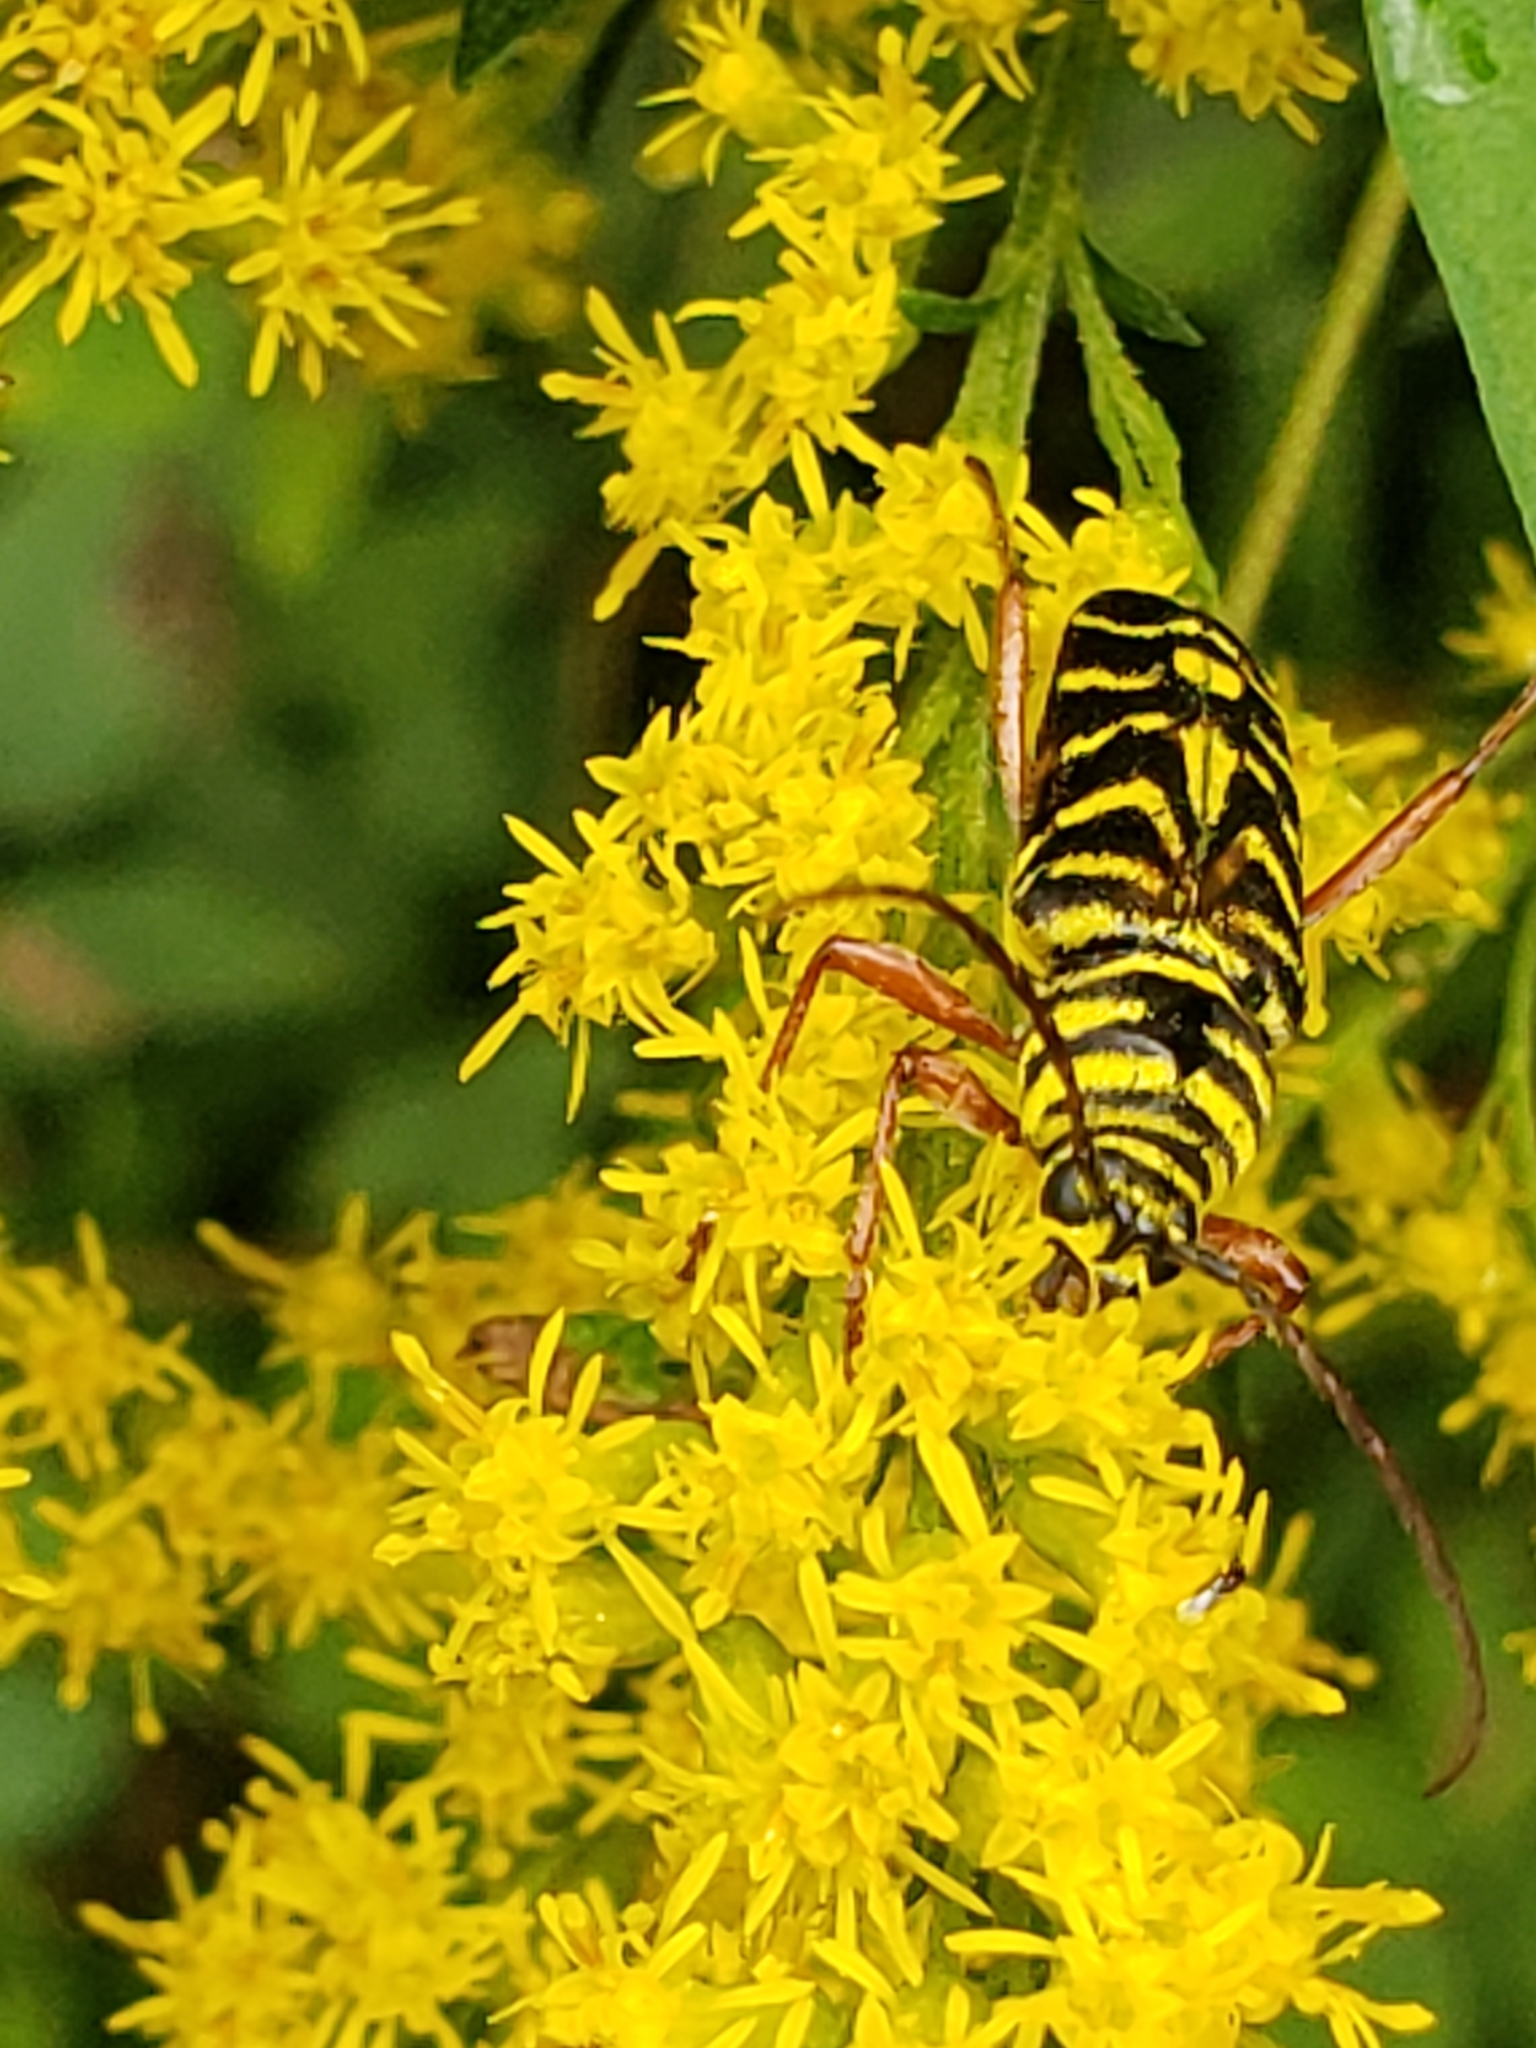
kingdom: Animalia
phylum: Arthropoda
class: Insecta
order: Coleoptera
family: Cerambycidae
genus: Megacyllene
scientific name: Megacyllene robiniae
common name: Locust borer
